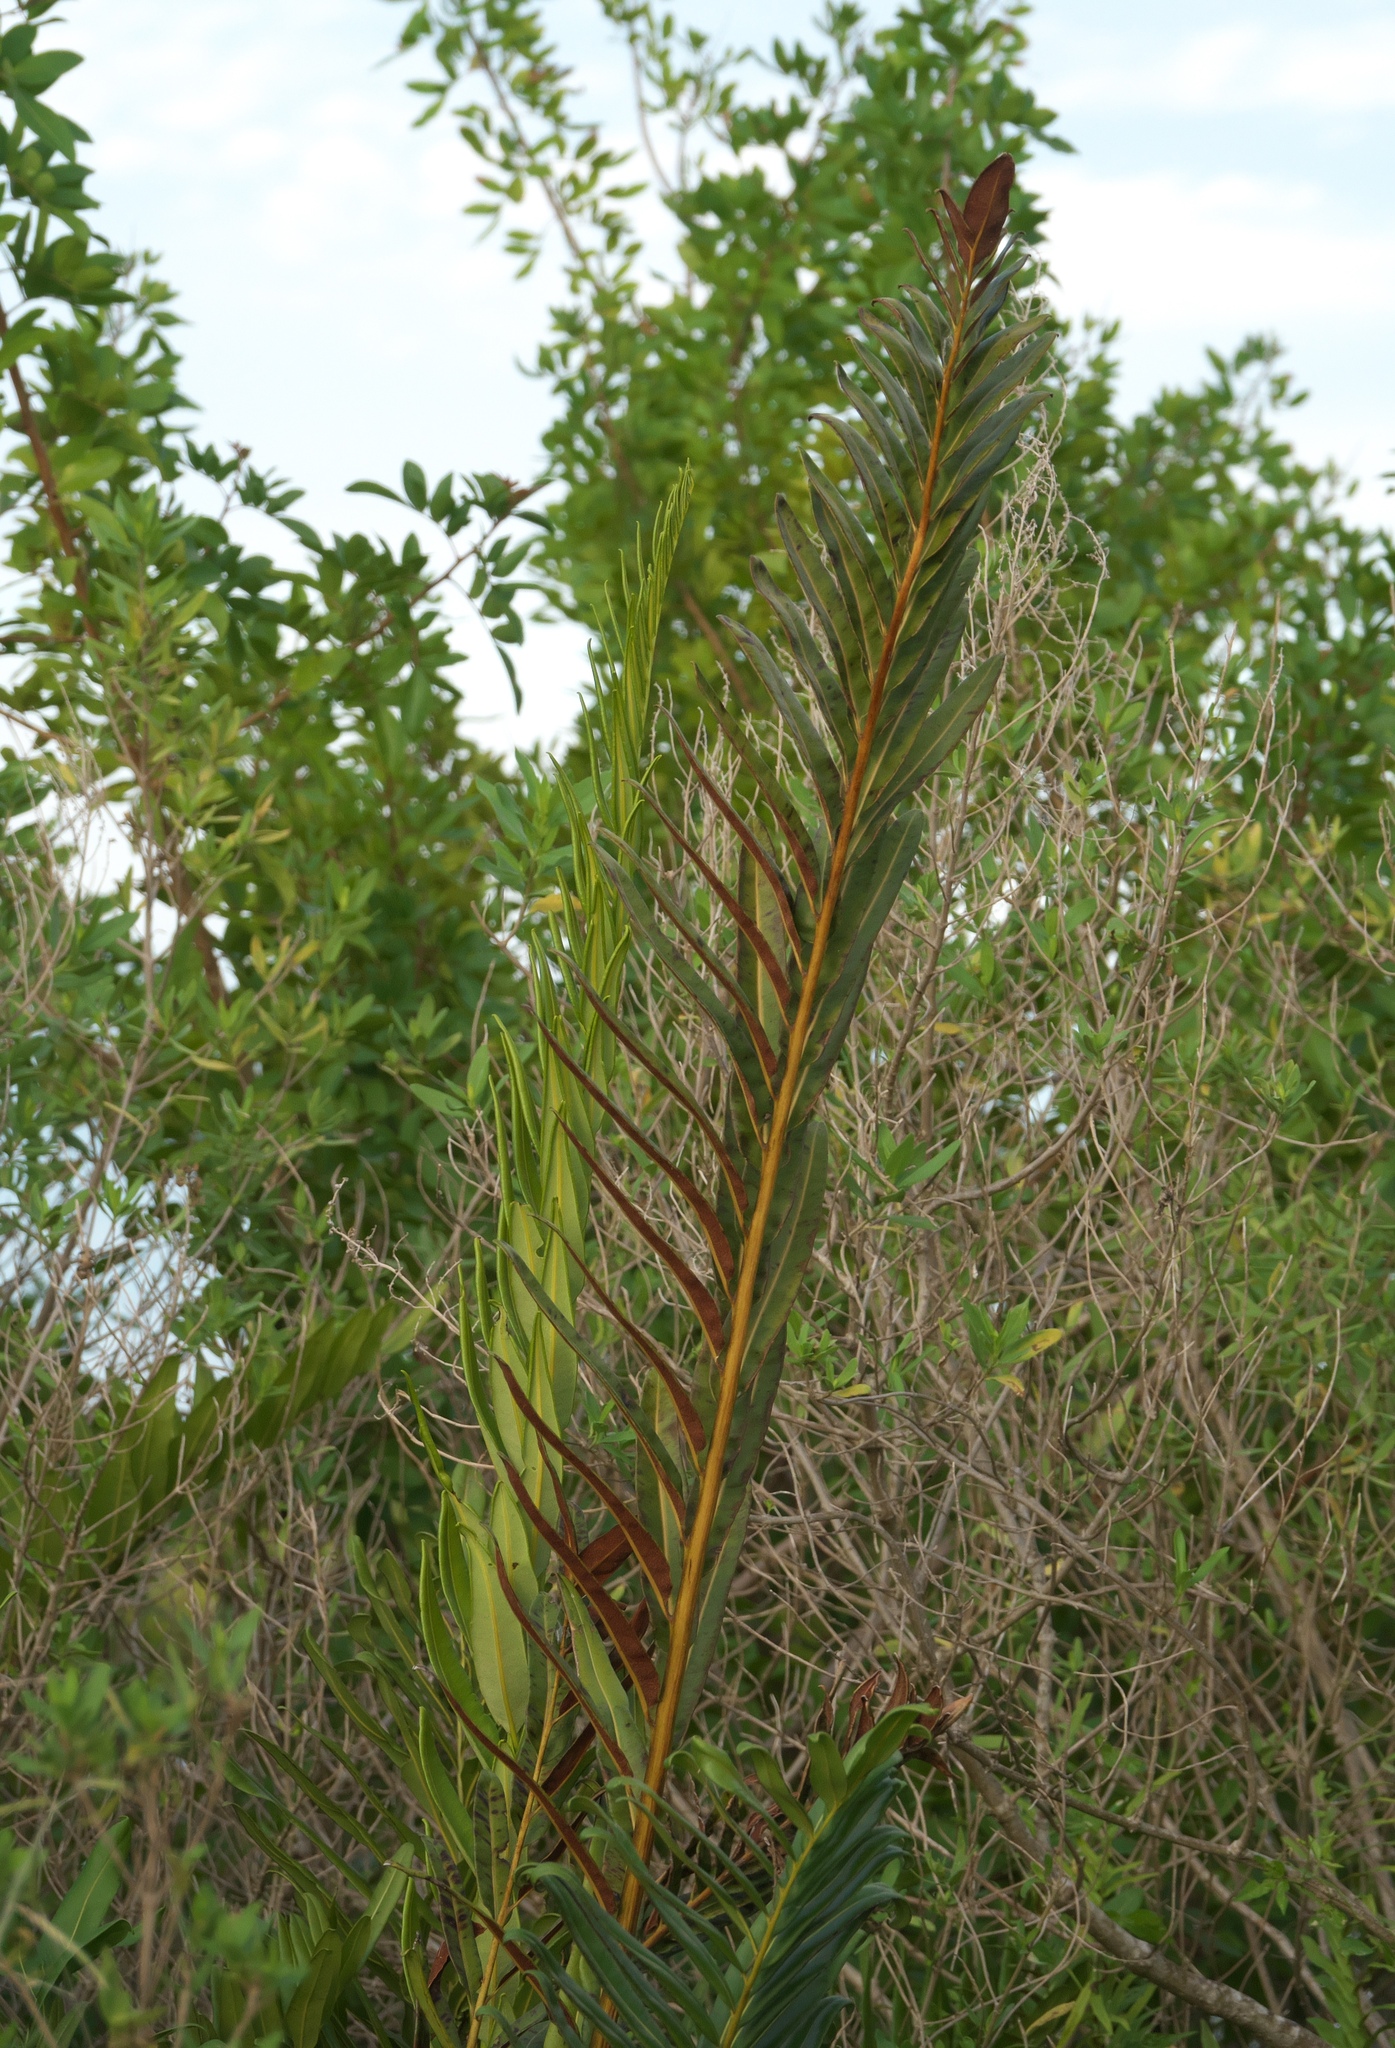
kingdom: Plantae
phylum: Tracheophyta
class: Polypodiopsida
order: Polypodiales
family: Pteridaceae
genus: Acrostichum
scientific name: Acrostichum danaeifolium
